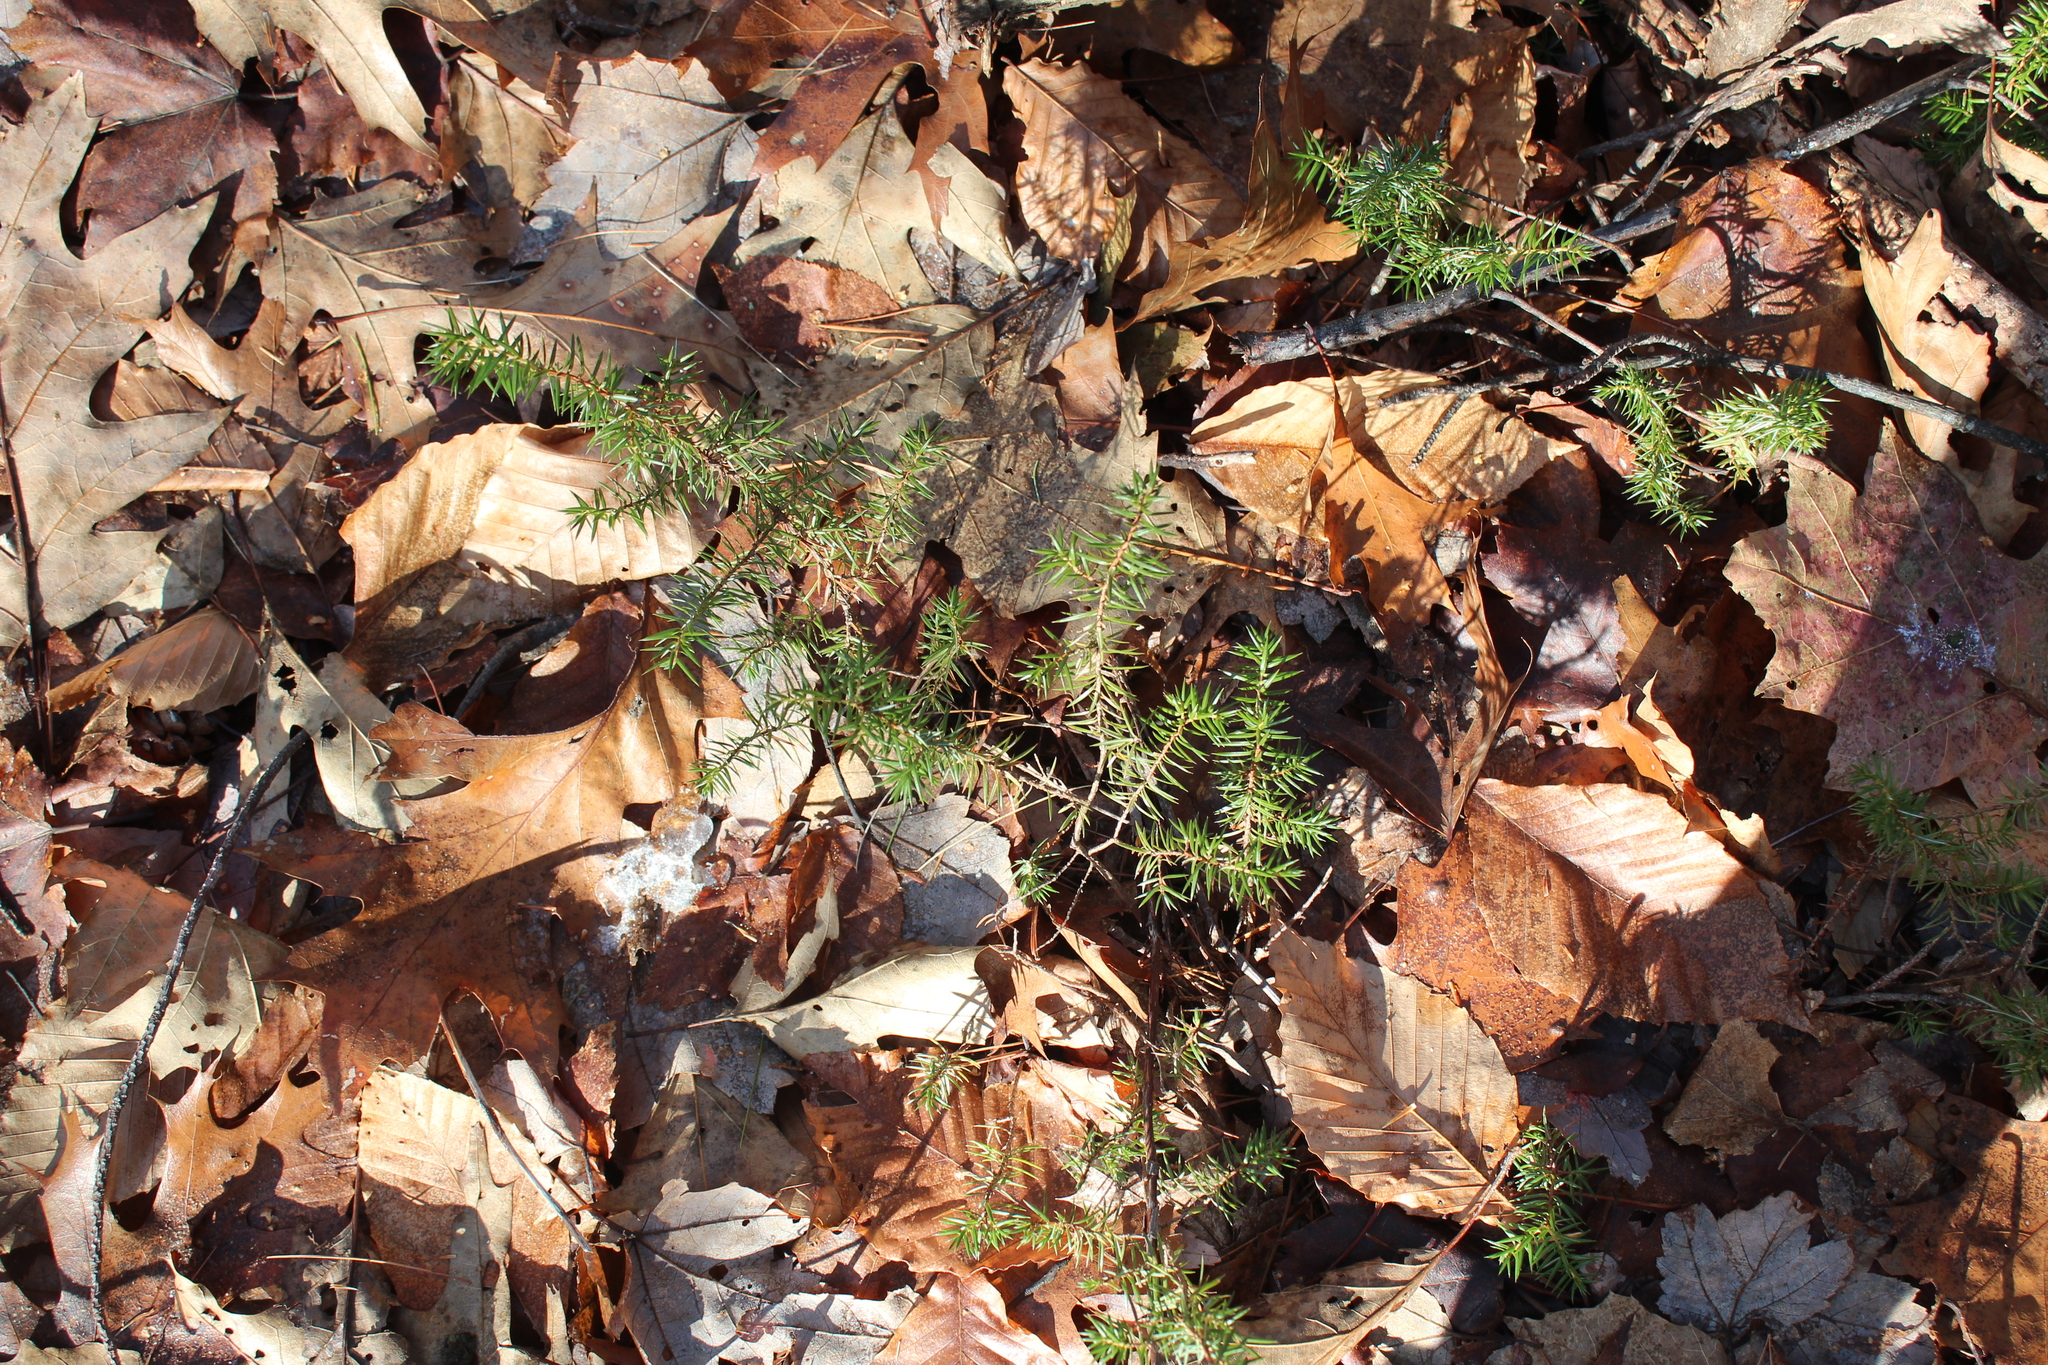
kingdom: Plantae
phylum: Tracheophyta
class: Pinopsida
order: Pinales
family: Cupressaceae
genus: Juniperus
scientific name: Juniperus communis
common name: Common juniper
